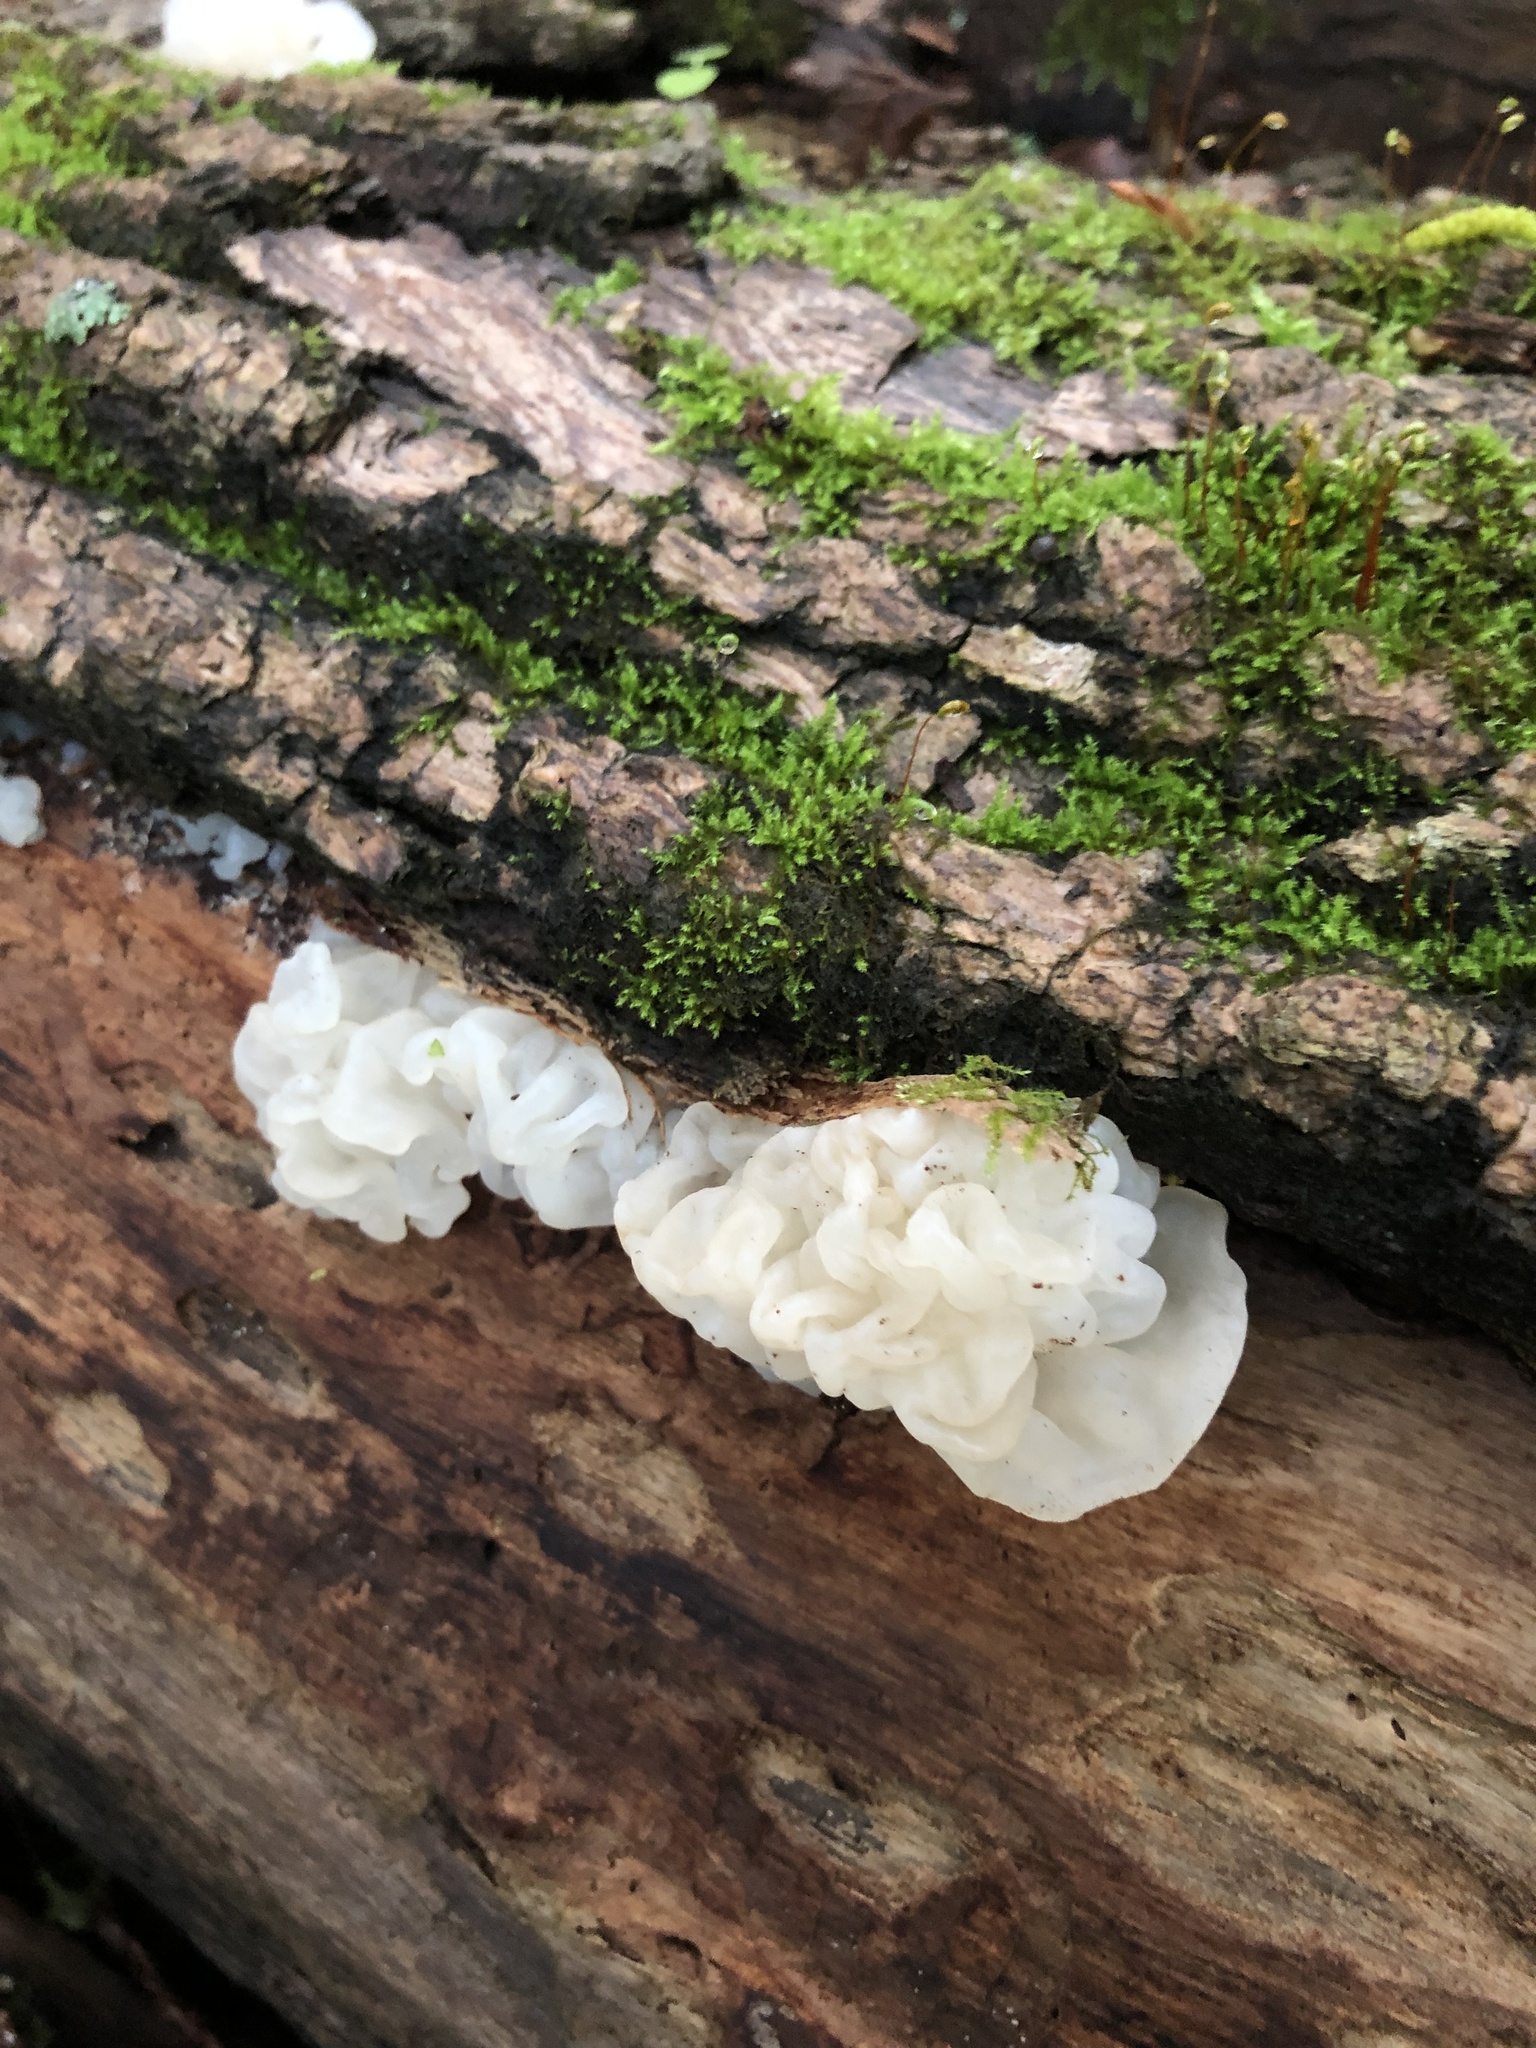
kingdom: Fungi
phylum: Basidiomycota
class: Agaricomycetes
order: Auriculariales
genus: Ductifera
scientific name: Ductifera pululahuana
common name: White jelly fungus
